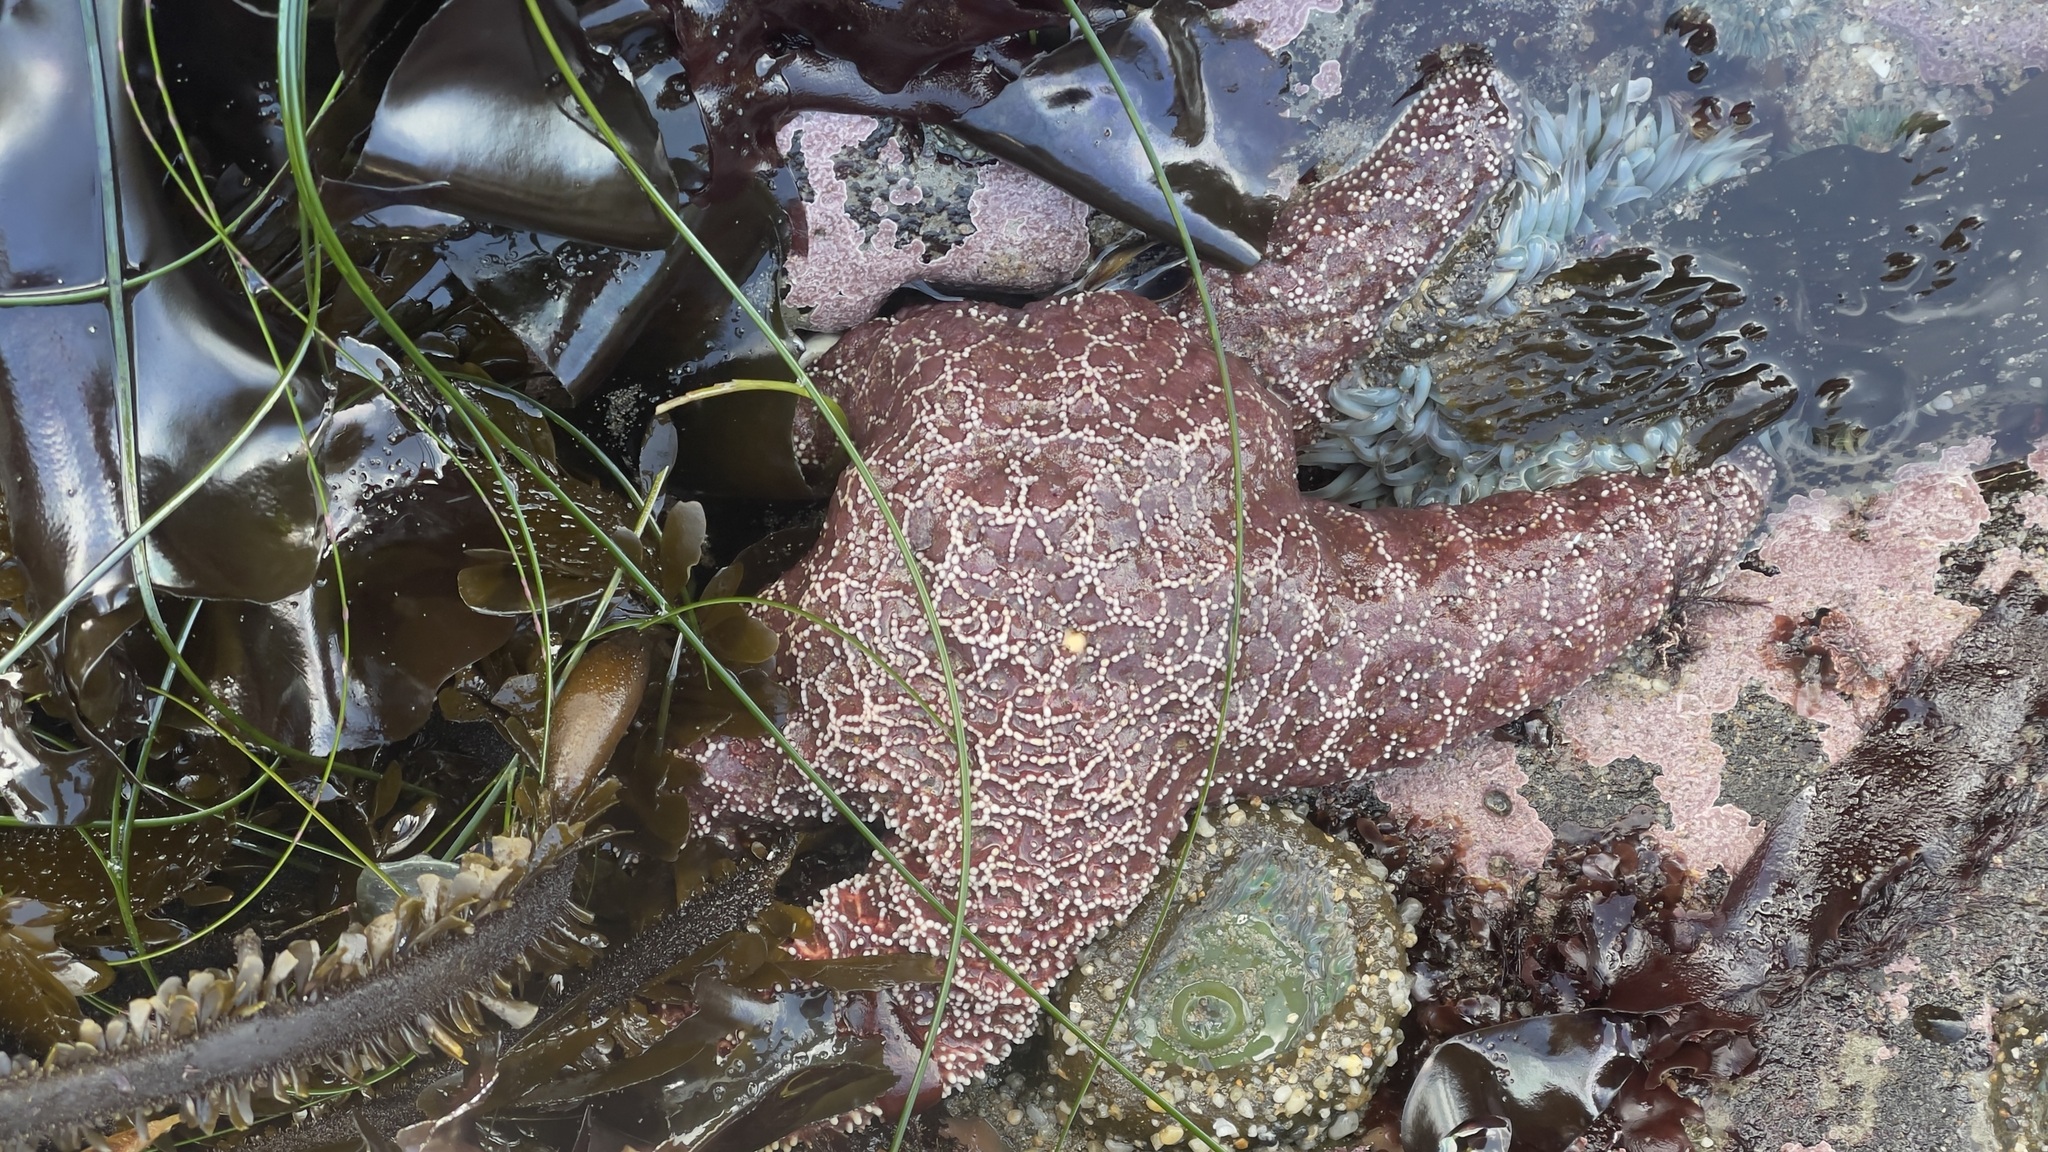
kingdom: Animalia
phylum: Echinodermata
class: Asteroidea
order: Forcipulatida
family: Asteriidae
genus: Pisaster
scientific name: Pisaster ochraceus
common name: Ochre stars
